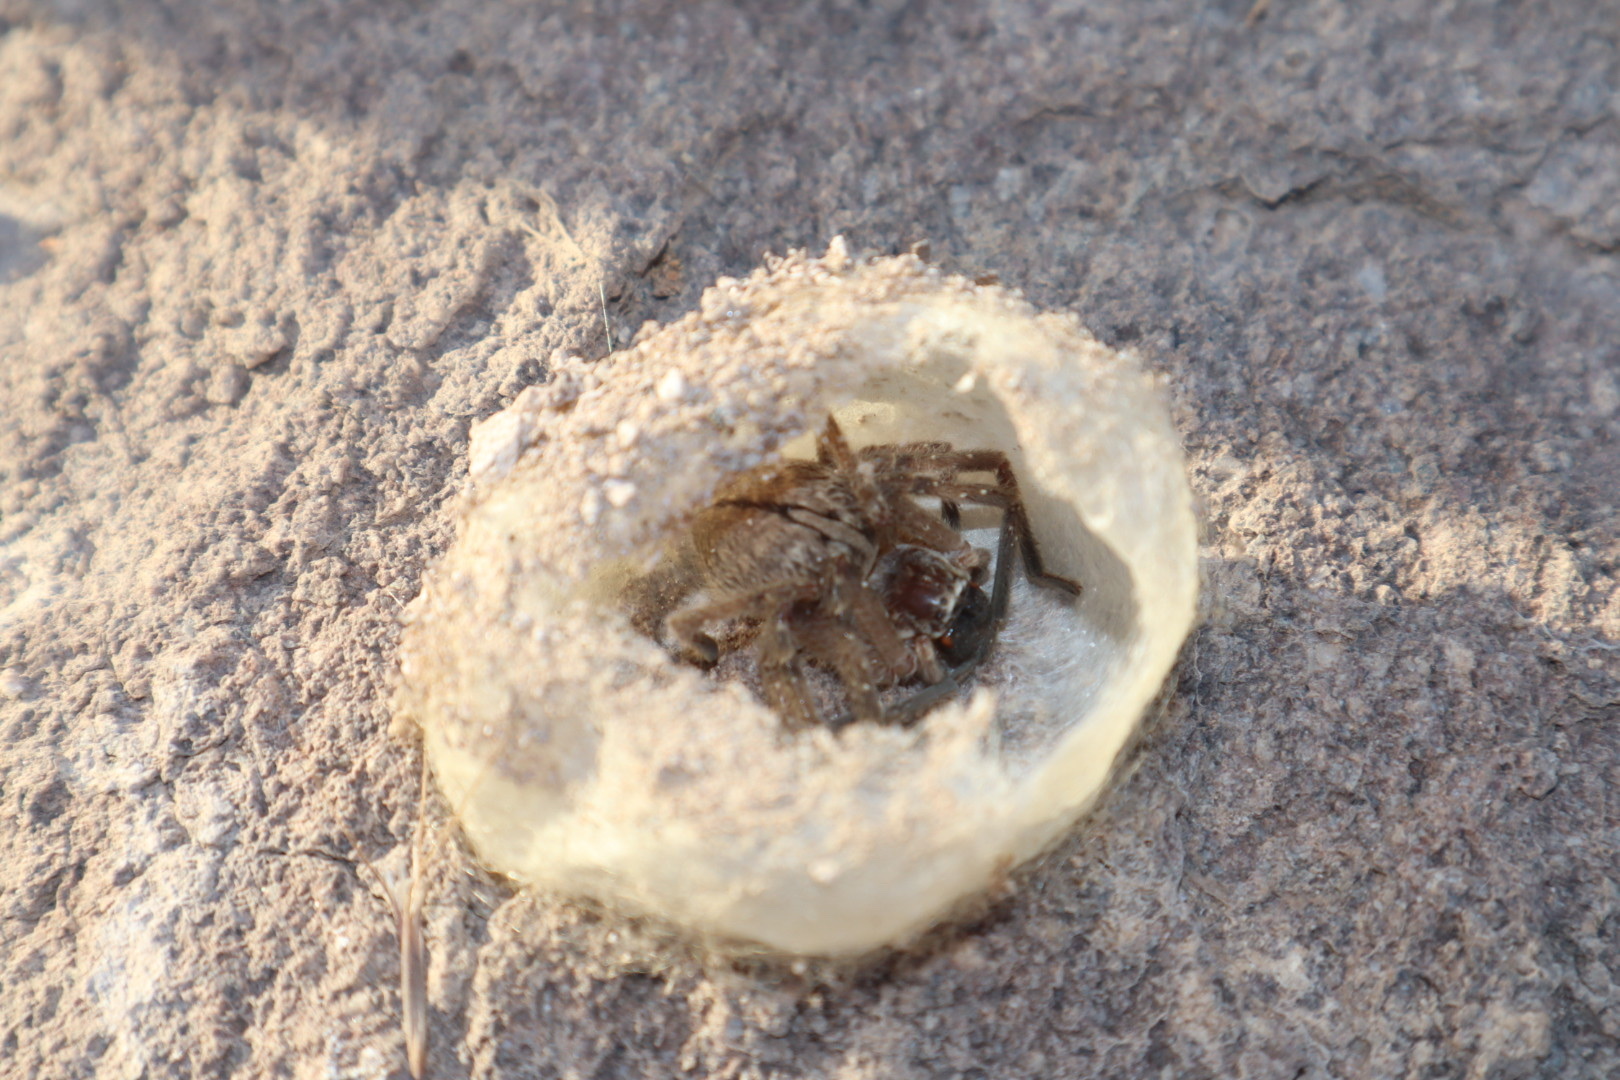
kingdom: Animalia
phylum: Arthropoda
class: Arachnida
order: Araneae
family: Sparassidae
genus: Olios
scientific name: Olios giganteus
